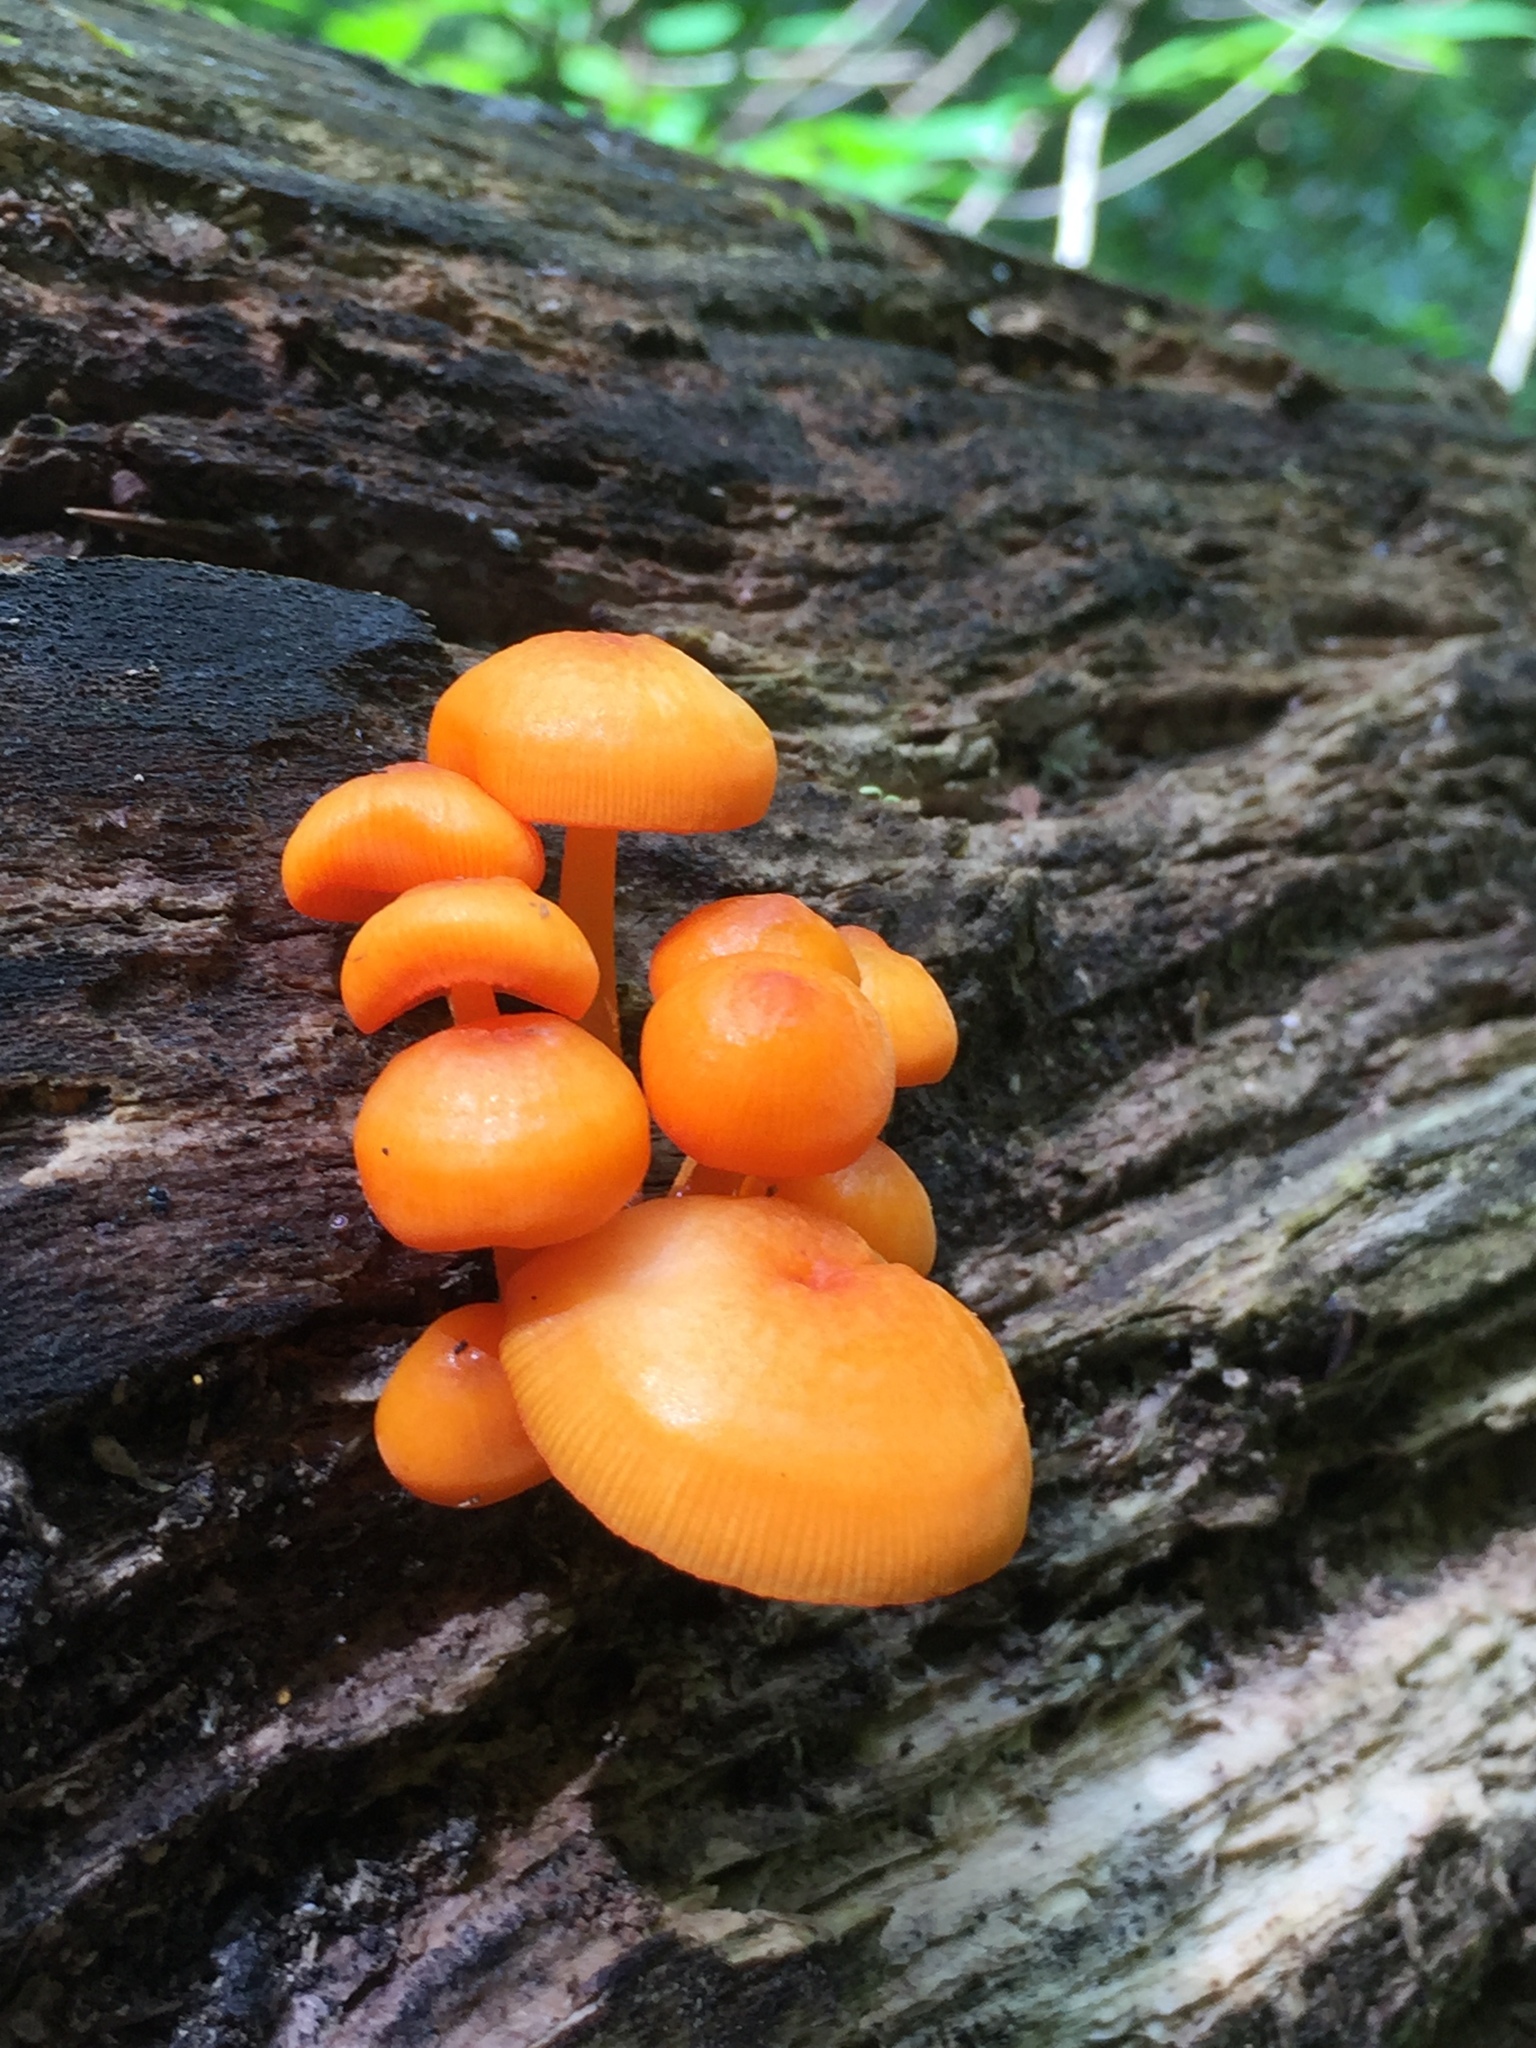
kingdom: Fungi
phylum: Basidiomycota
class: Agaricomycetes
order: Agaricales
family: Mycenaceae
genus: Mycena
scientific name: Mycena leaiana
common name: Orange mycena
